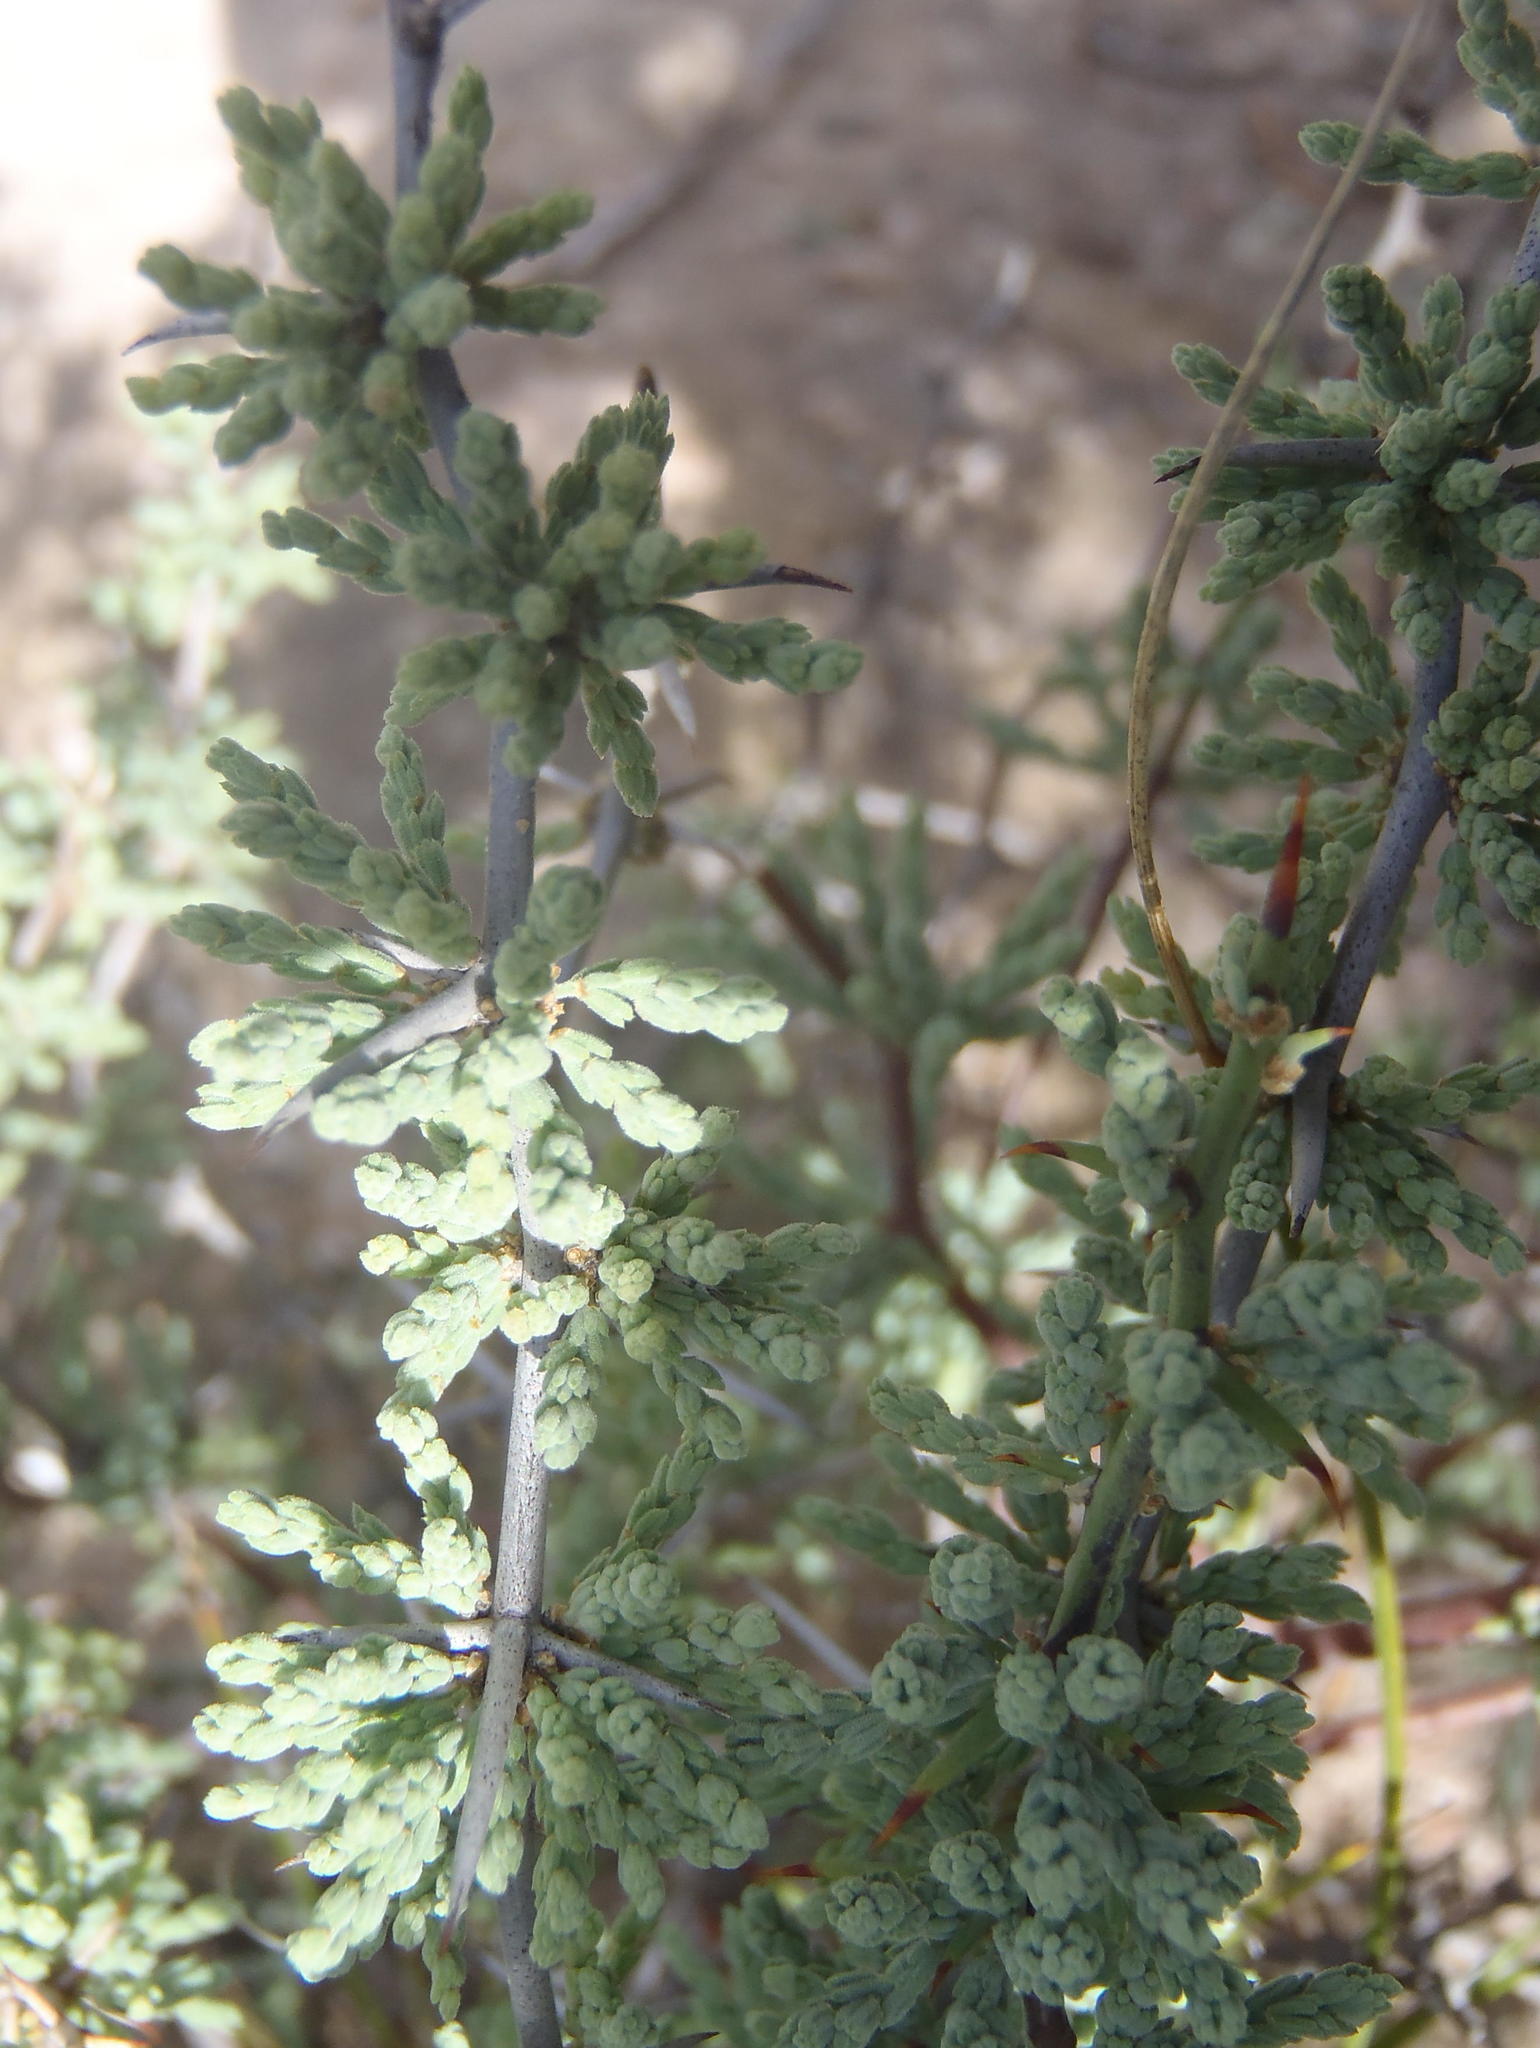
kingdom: Plantae
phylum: Tracheophyta
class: Liliopsida
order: Asparagales
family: Asparagaceae
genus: Asparagus
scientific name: Asparagus capensis
